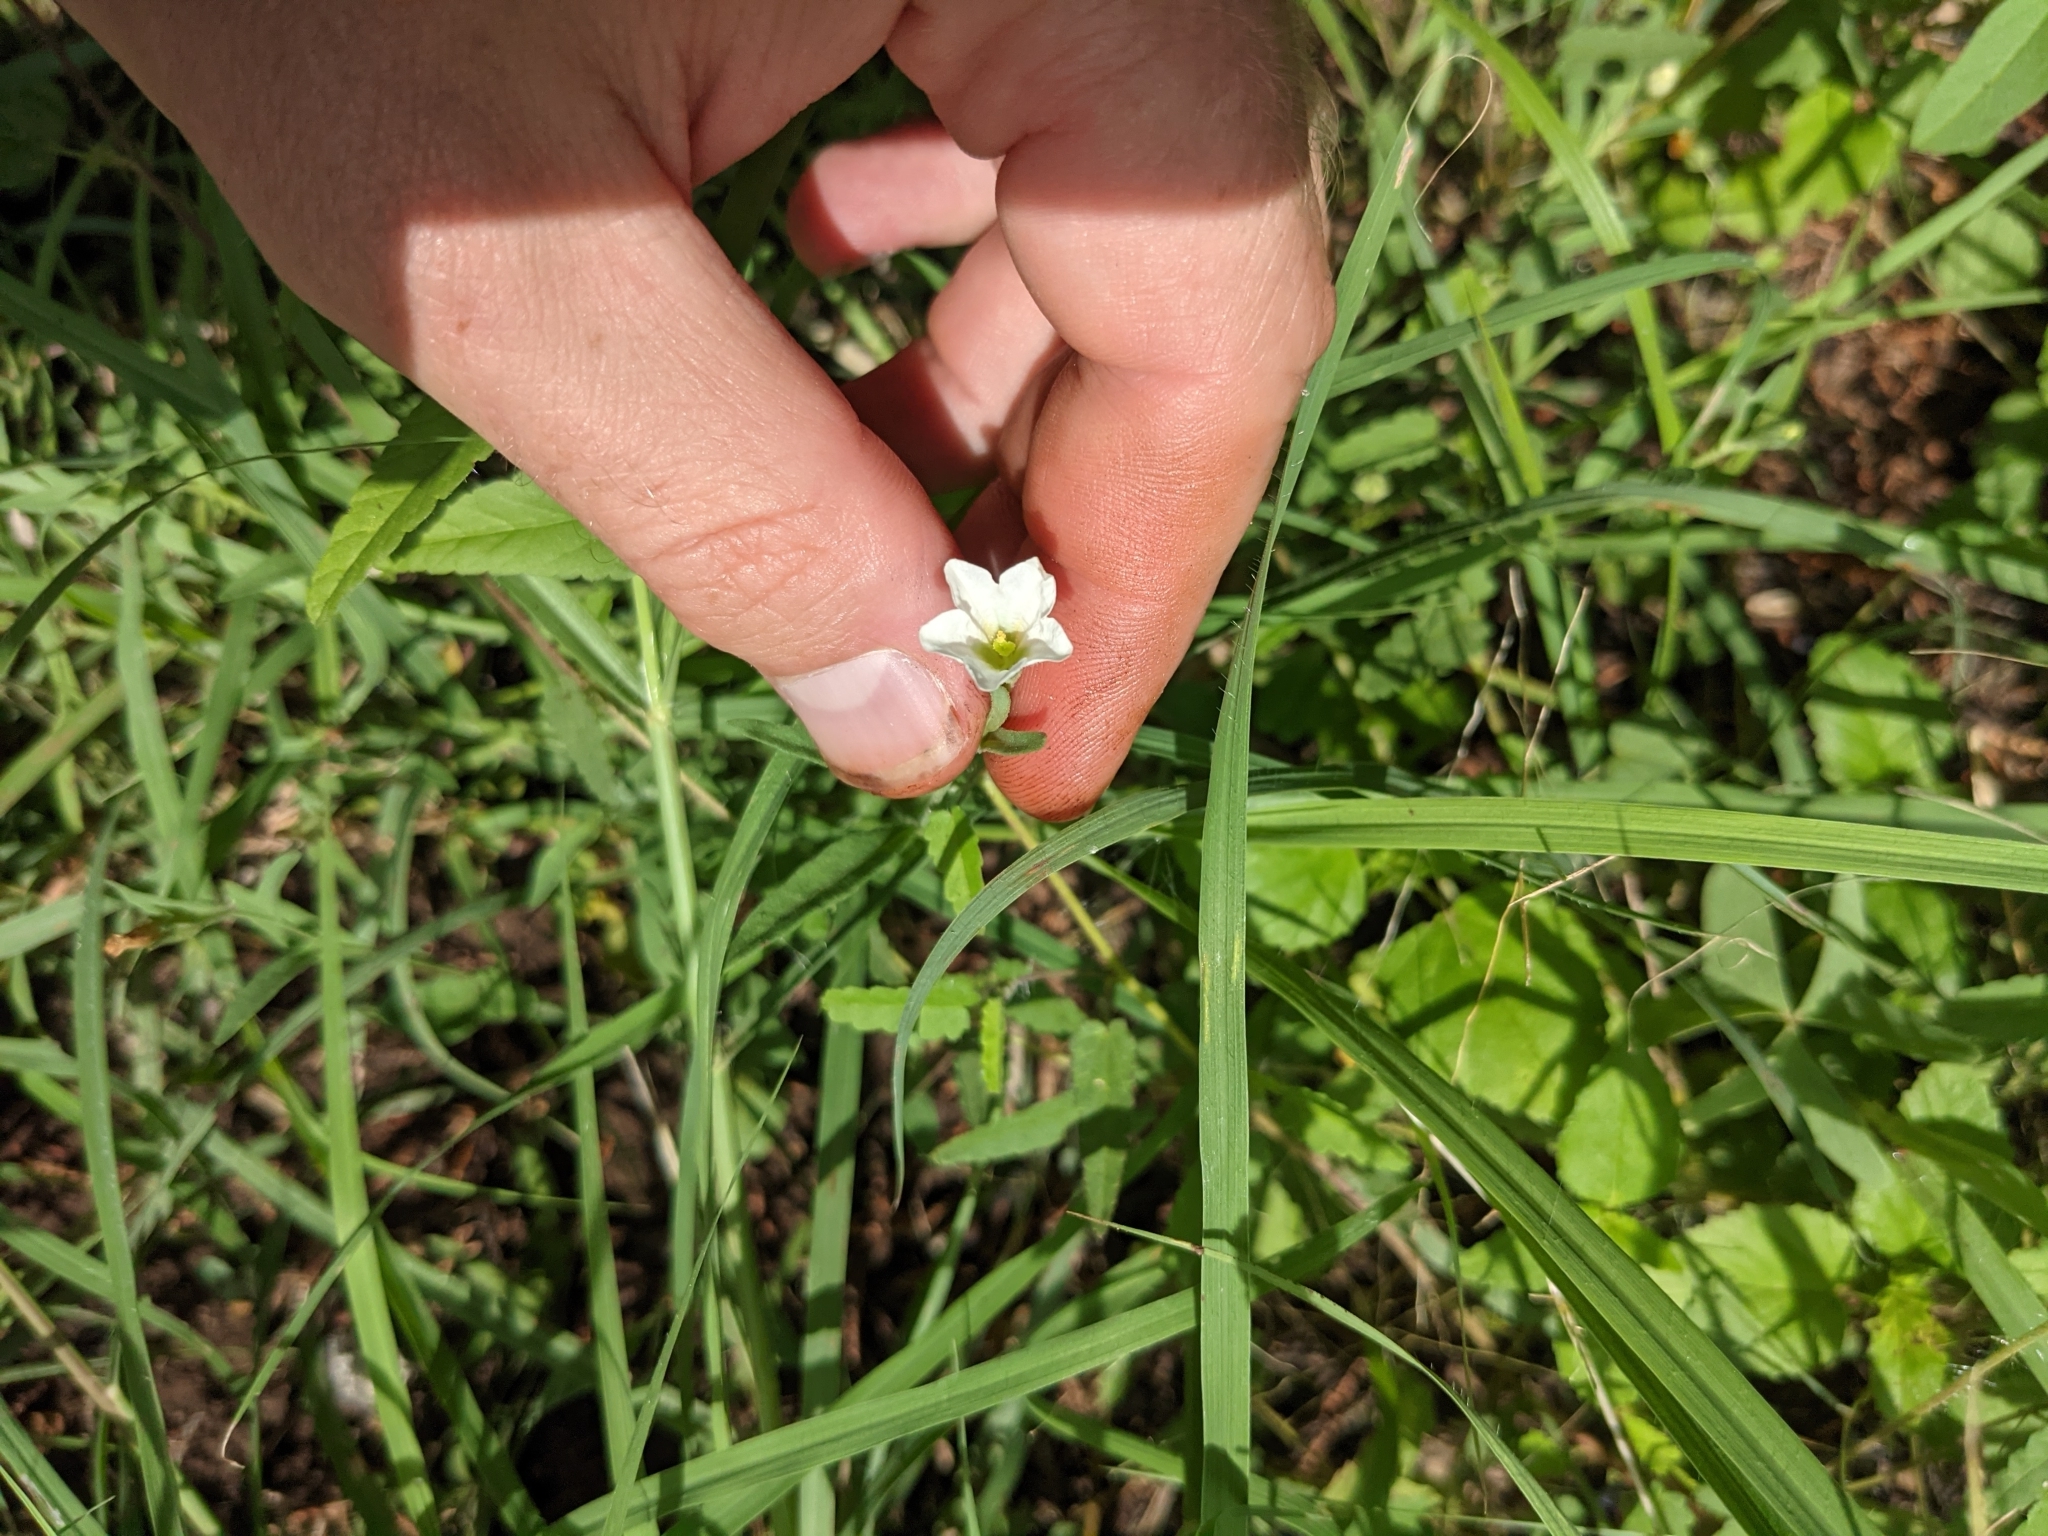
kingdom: Plantae
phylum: Tracheophyta
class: Magnoliopsida
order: Solanales
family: Solanaceae
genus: Salpiglossis
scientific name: Salpiglossis erecta
